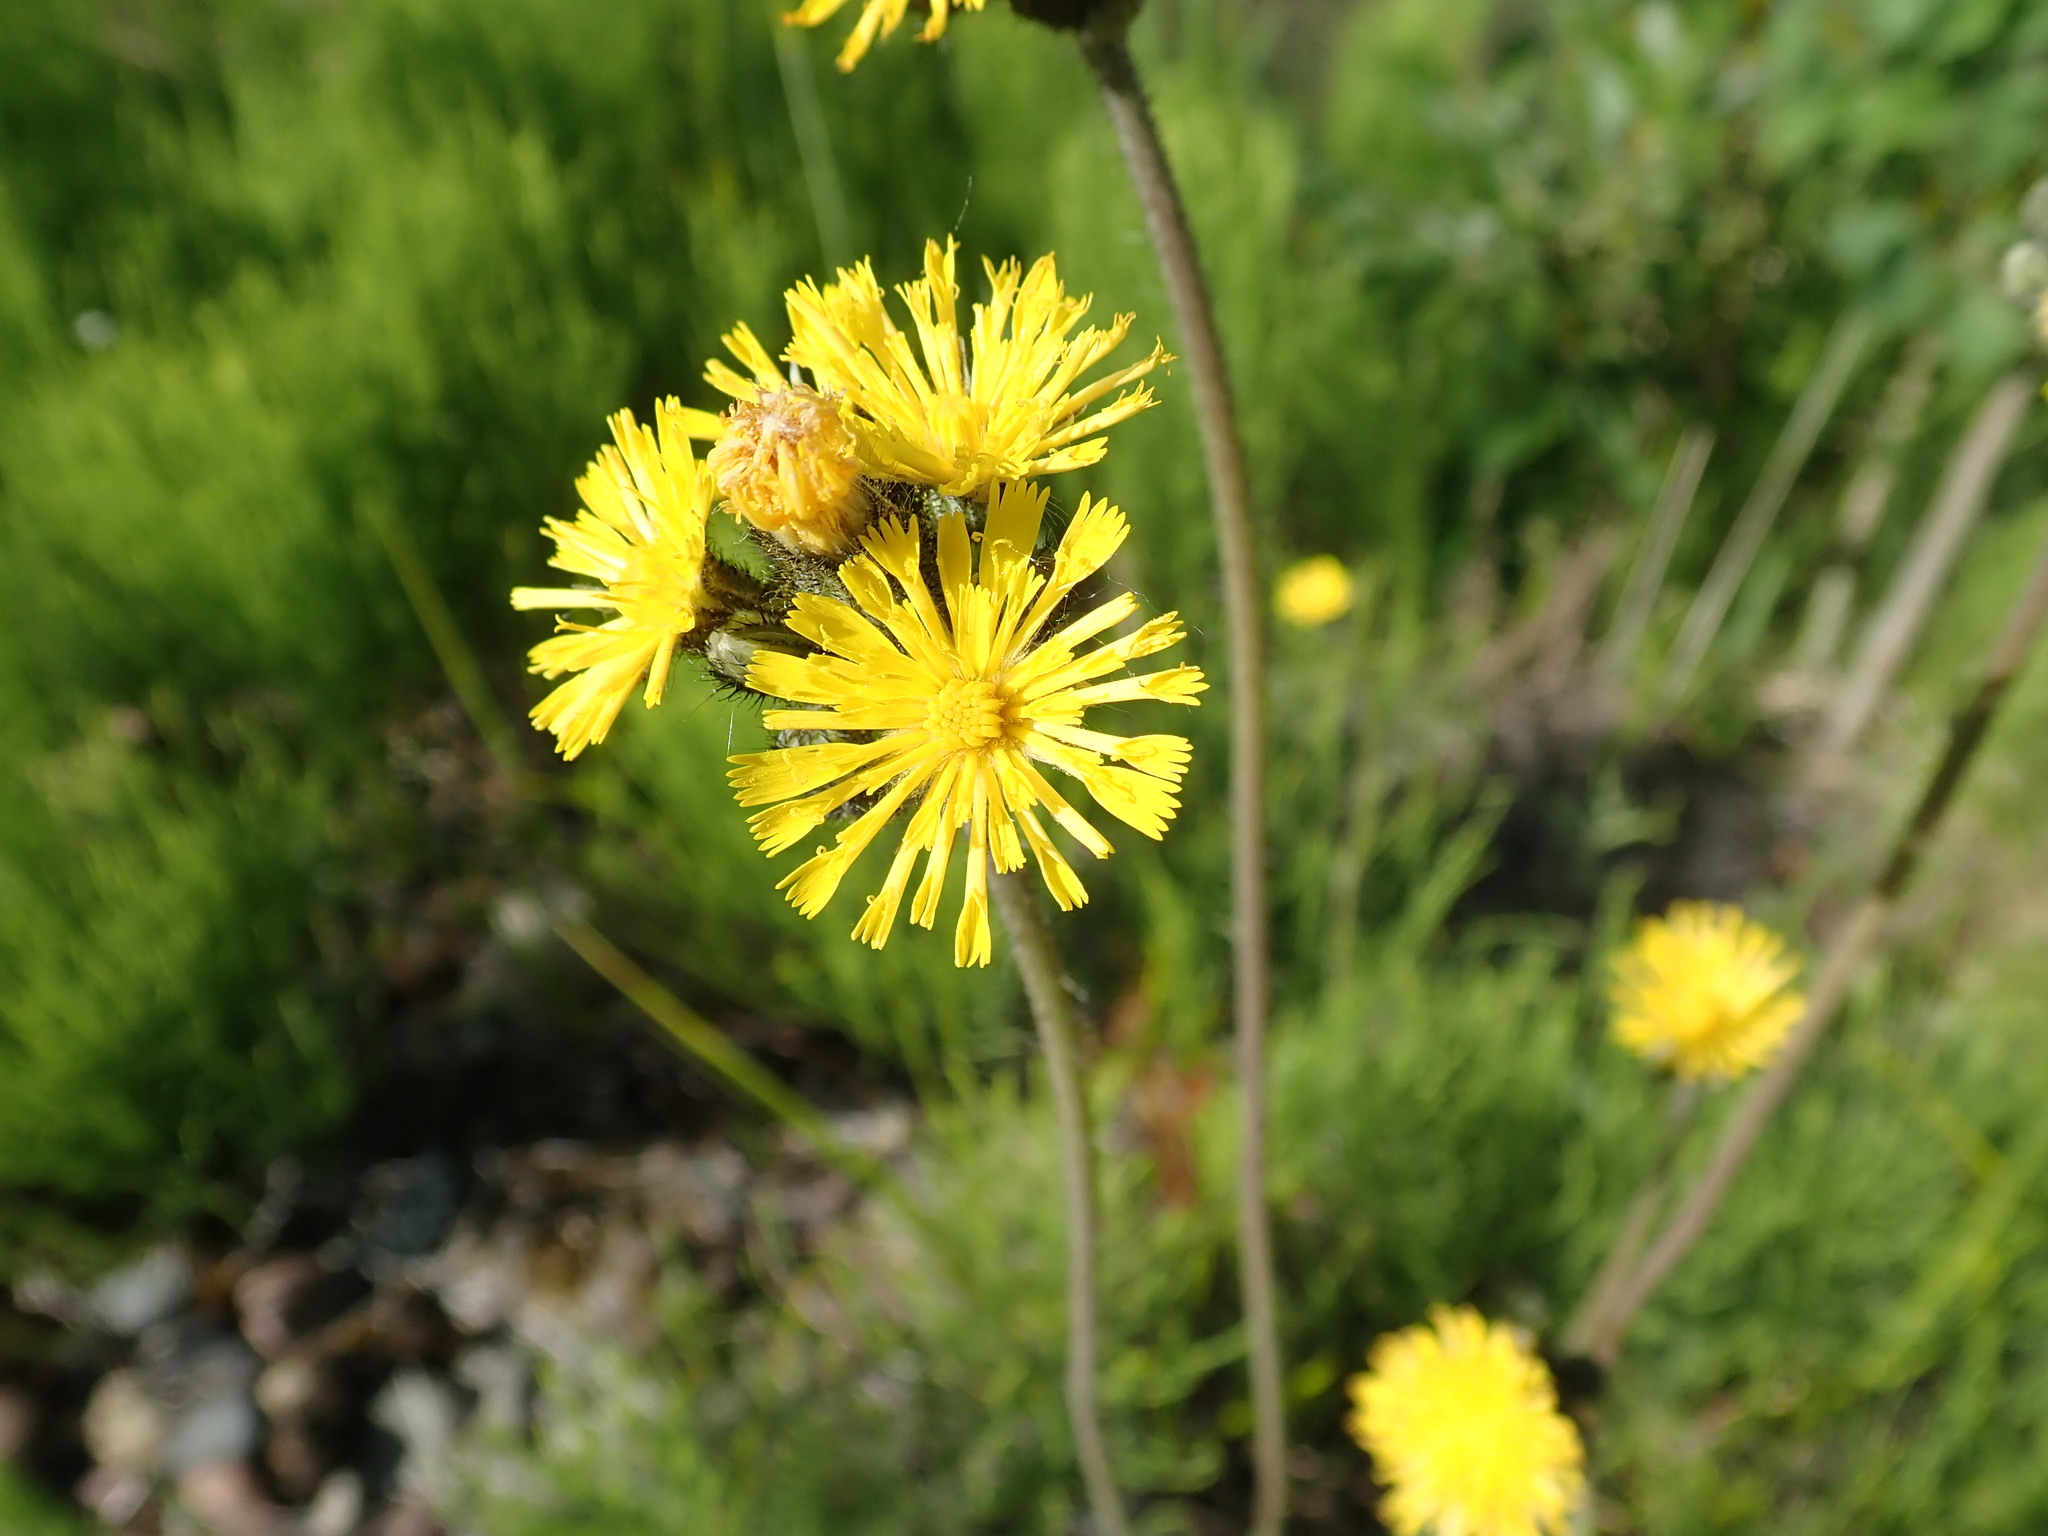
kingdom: Plantae
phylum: Tracheophyta
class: Magnoliopsida
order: Asterales
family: Asteraceae
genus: Pilosella
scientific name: Pilosella caespitosa
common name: Yellow fox-and-cubs
